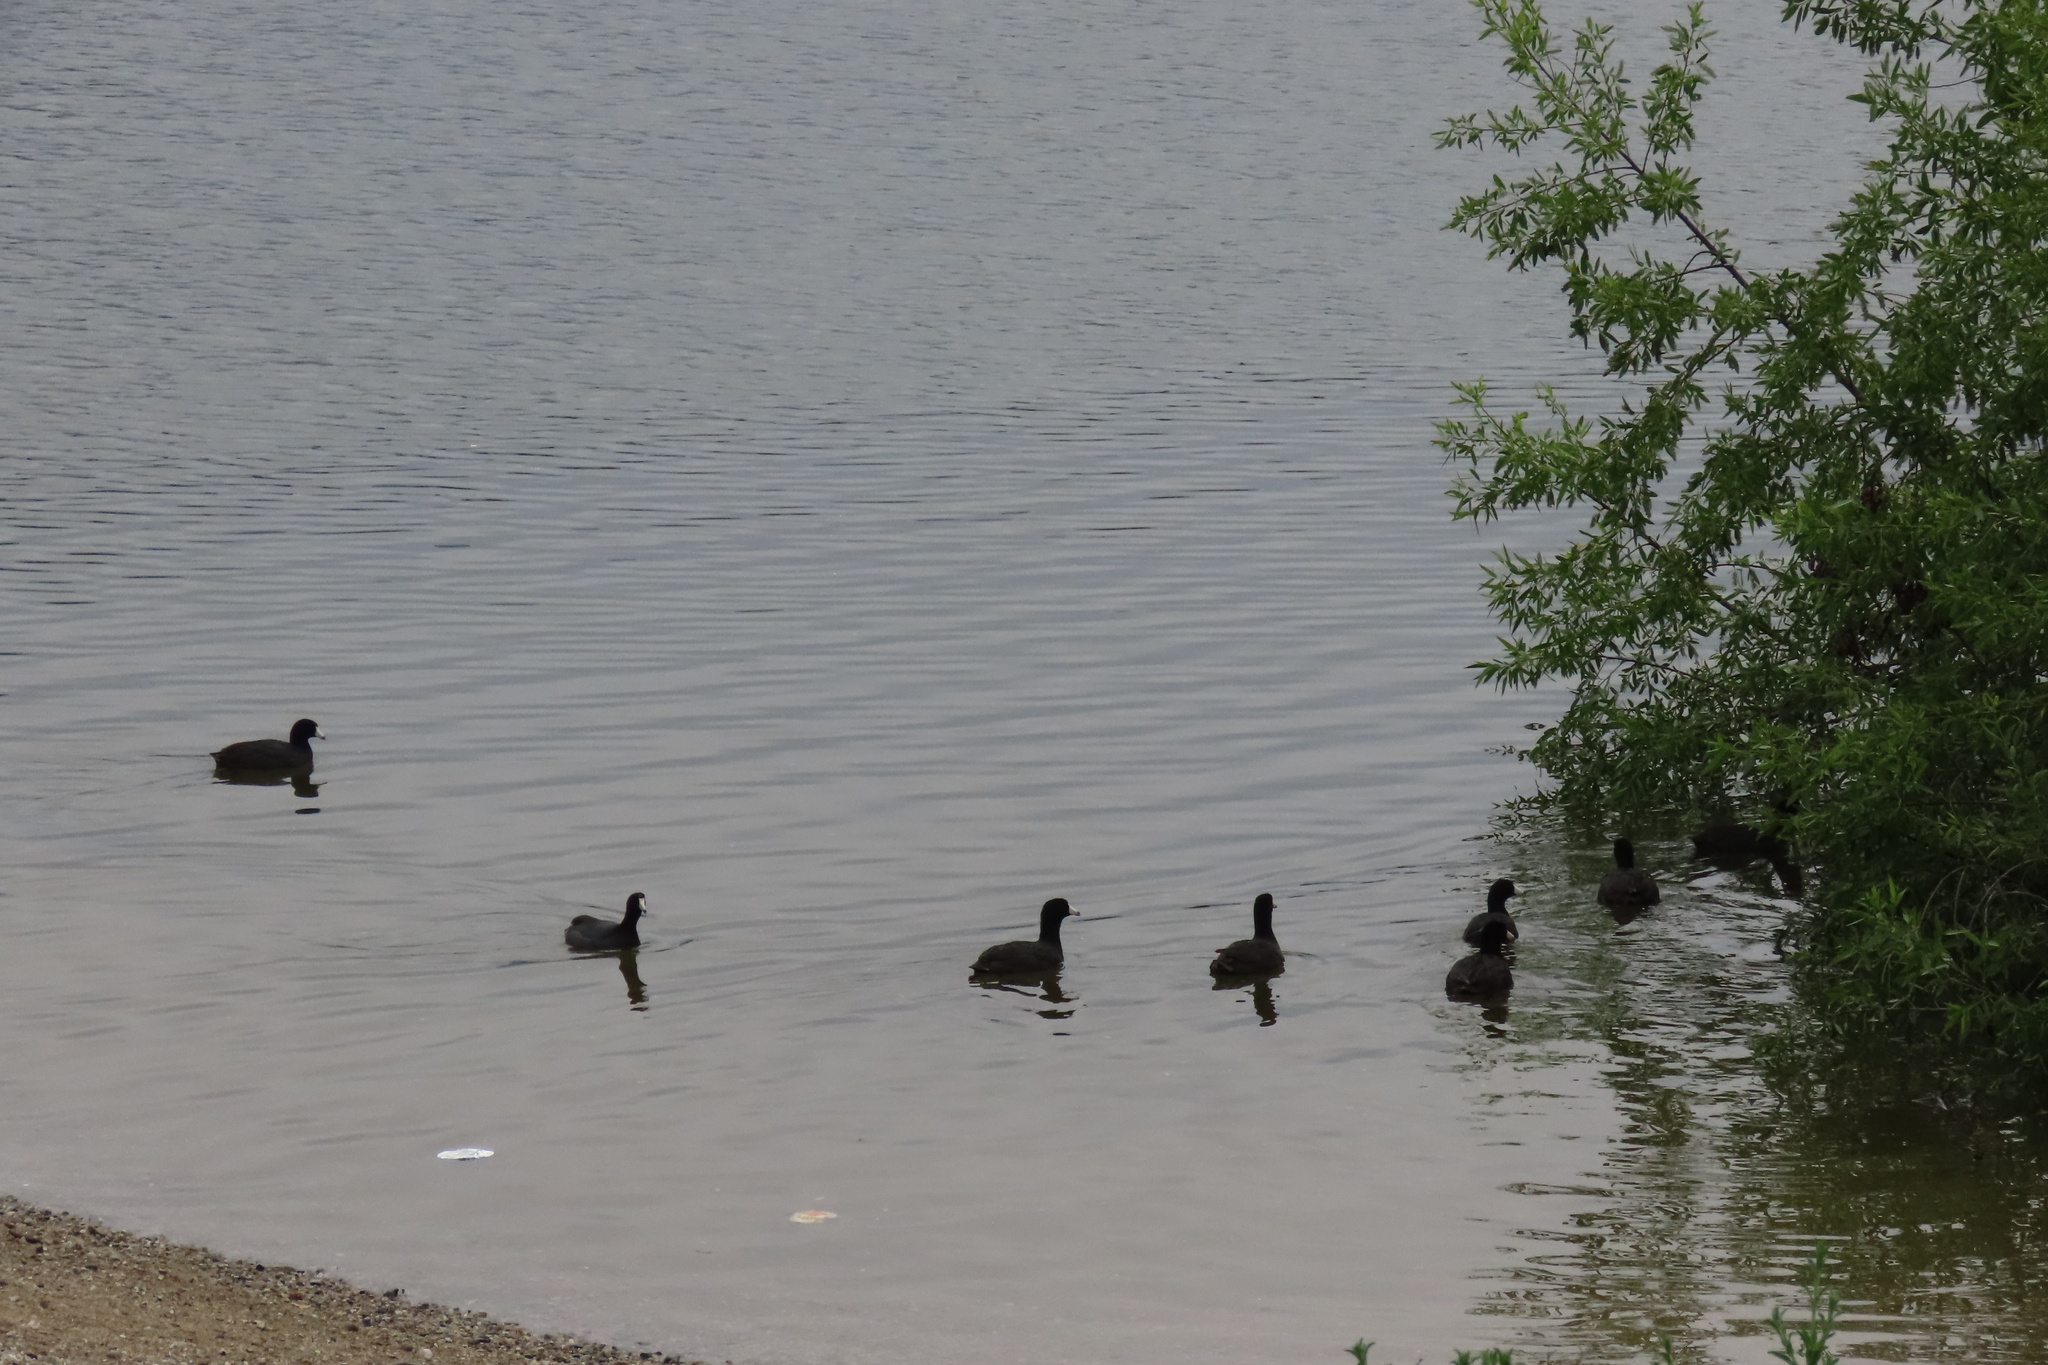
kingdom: Animalia
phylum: Chordata
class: Aves
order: Gruiformes
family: Rallidae
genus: Fulica
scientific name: Fulica americana
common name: American coot
